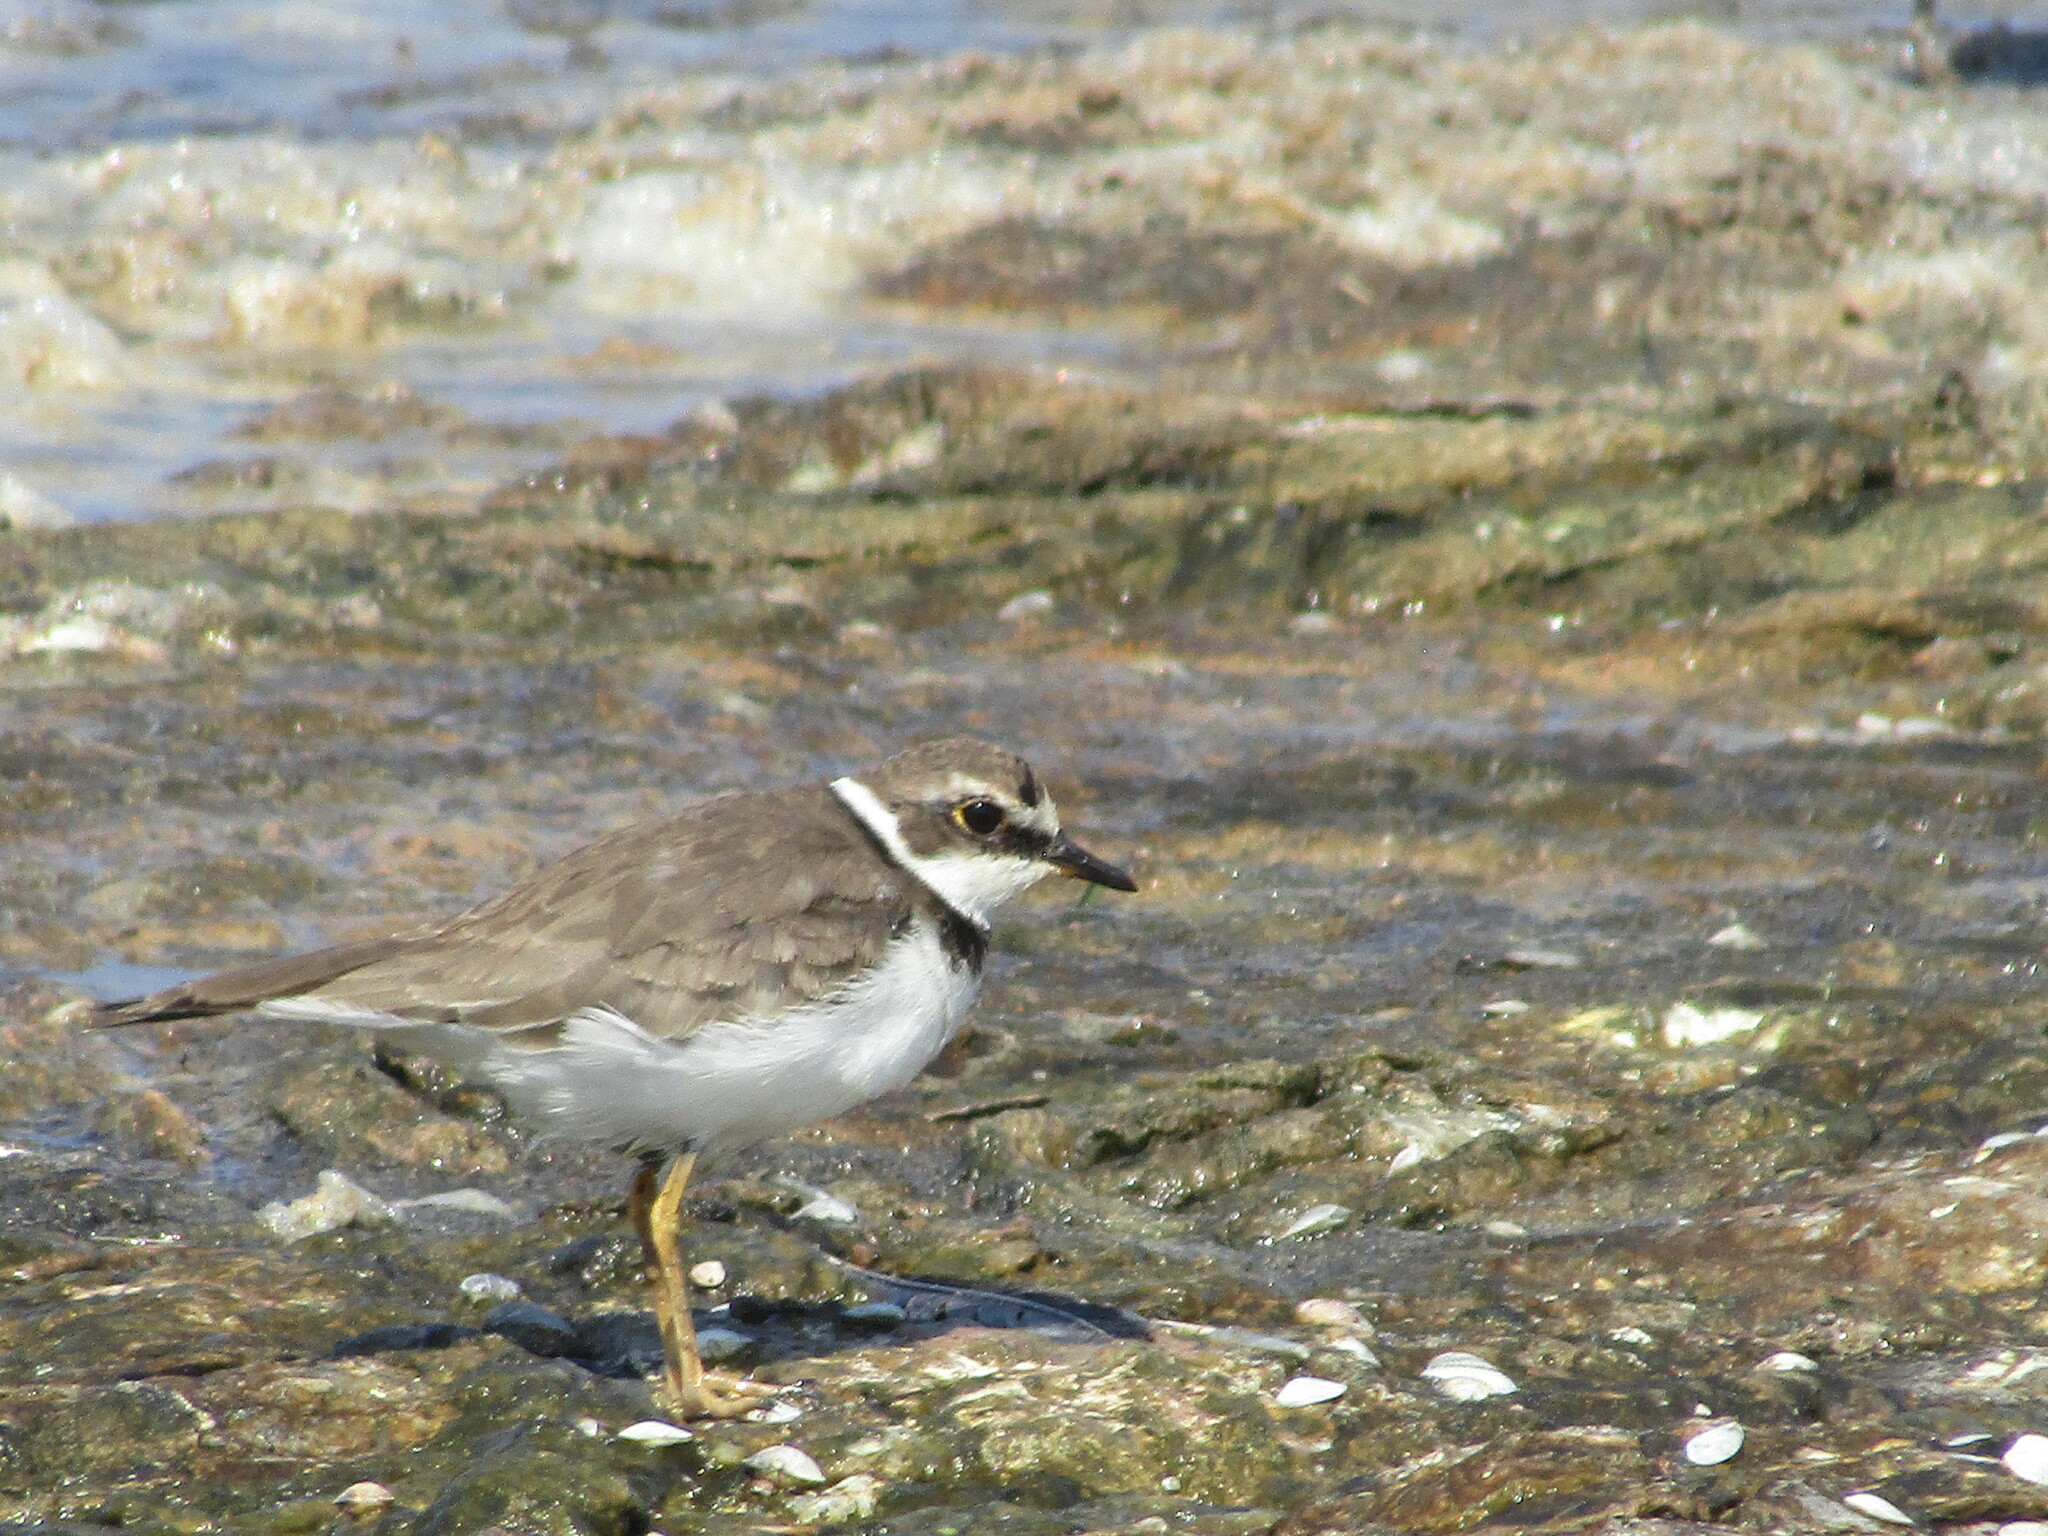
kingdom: Animalia
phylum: Chordata
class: Aves
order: Charadriiformes
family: Charadriidae
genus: Charadrius
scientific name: Charadrius dubius
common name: Little ringed plover
